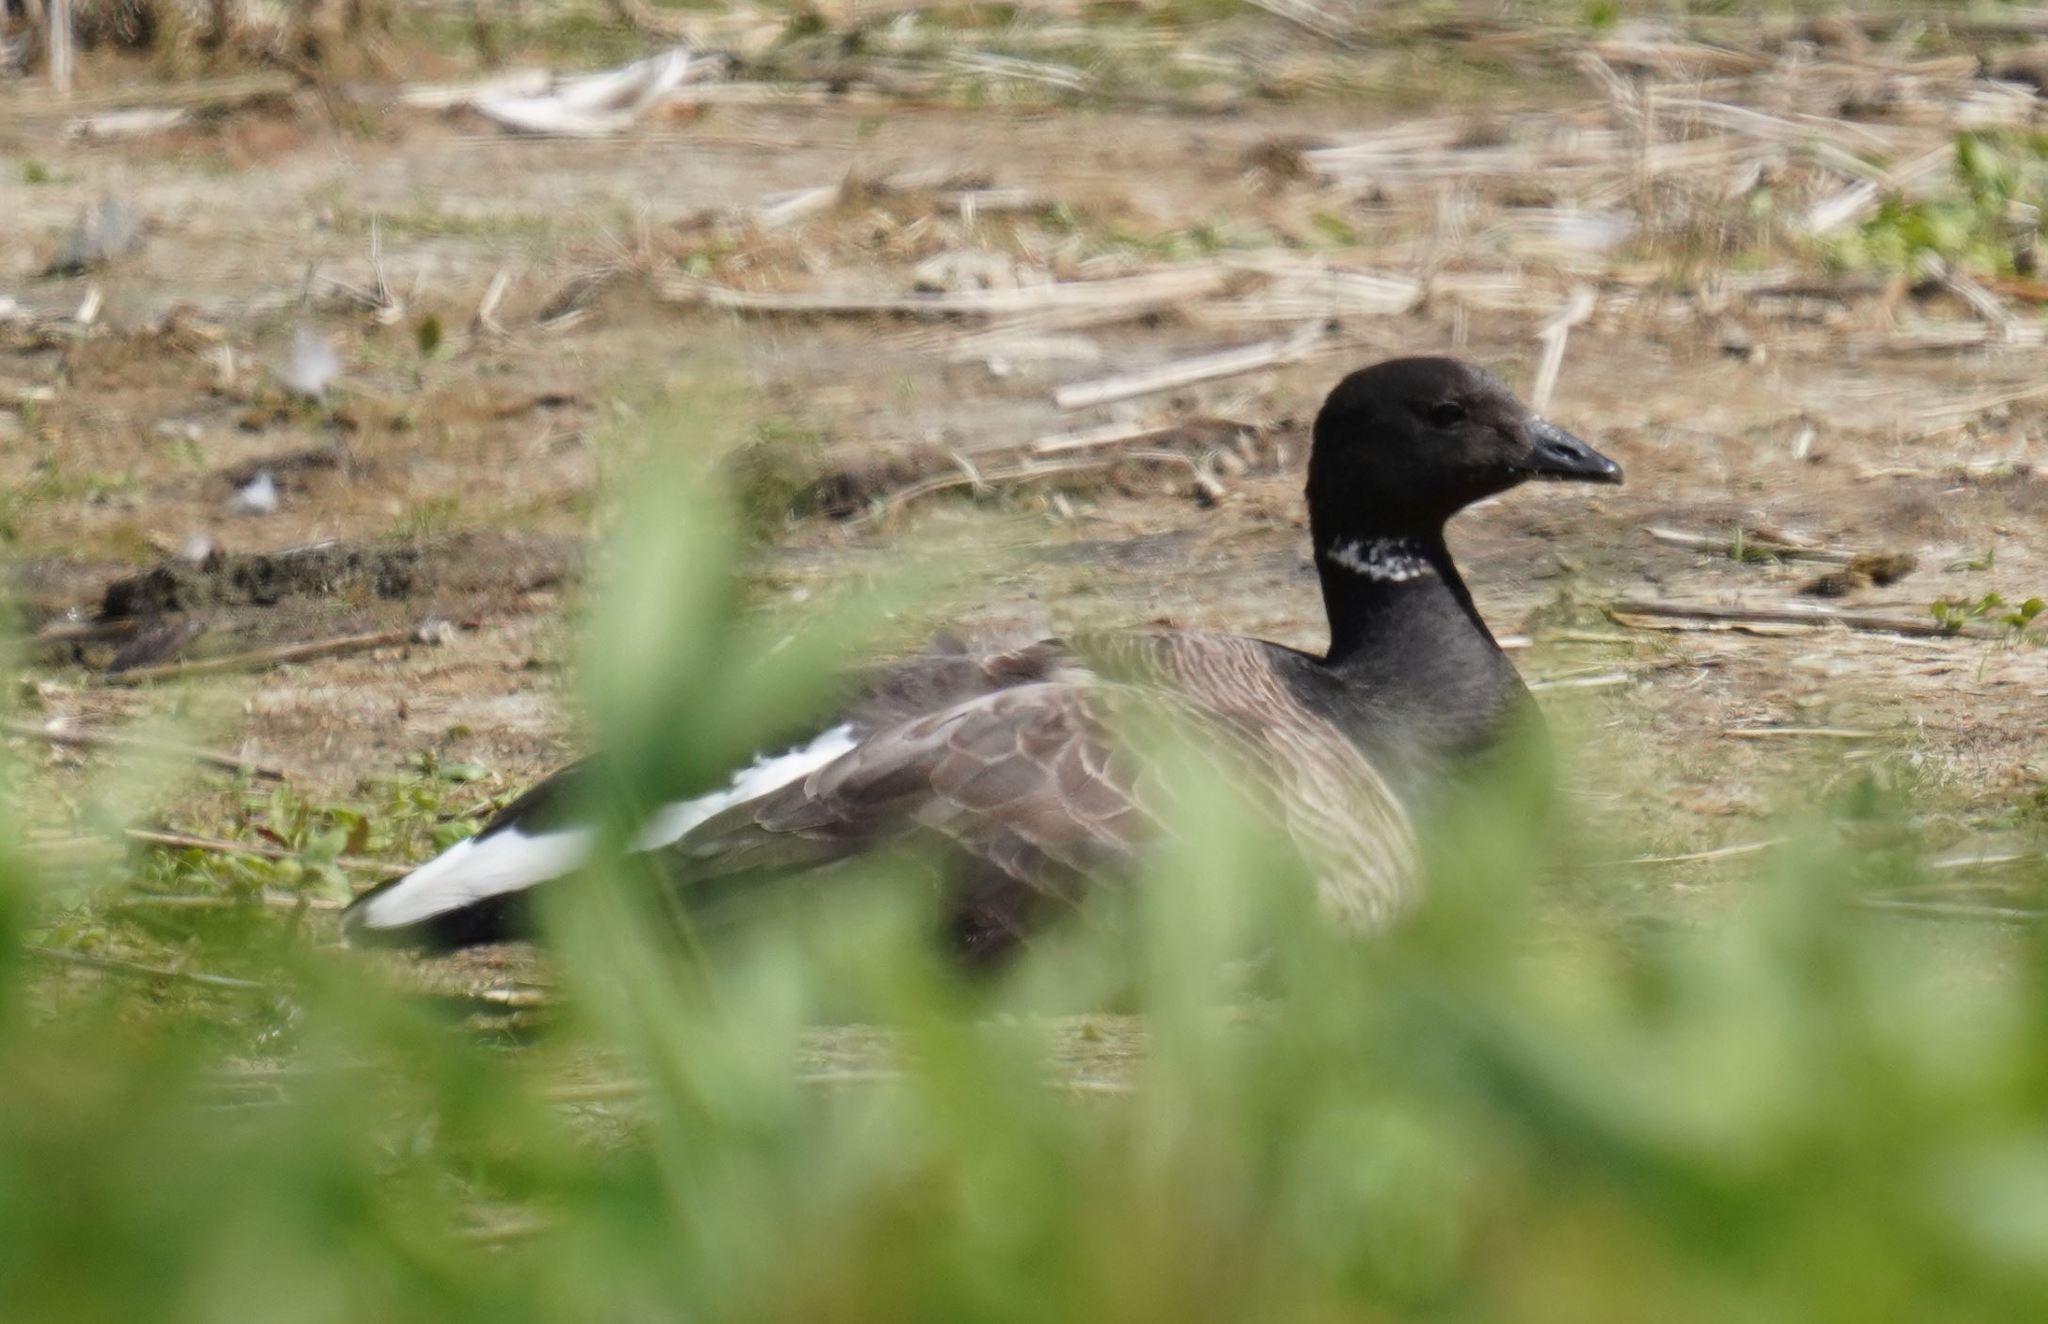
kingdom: Animalia
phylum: Chordata
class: Aves
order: Anseriformes
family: Anatidae
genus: Branta
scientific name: Branta bernicla
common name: Brant goose
